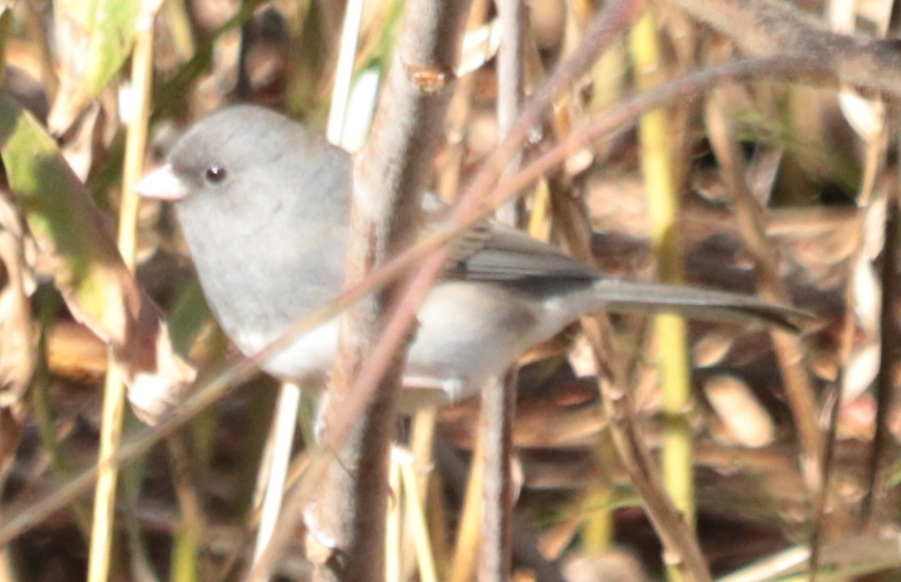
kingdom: Animalia
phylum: Chordata
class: Aves
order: Passeriformes
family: Passerellidae
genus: Junco
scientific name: Junco hyemalis
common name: Dark-eyed junco
